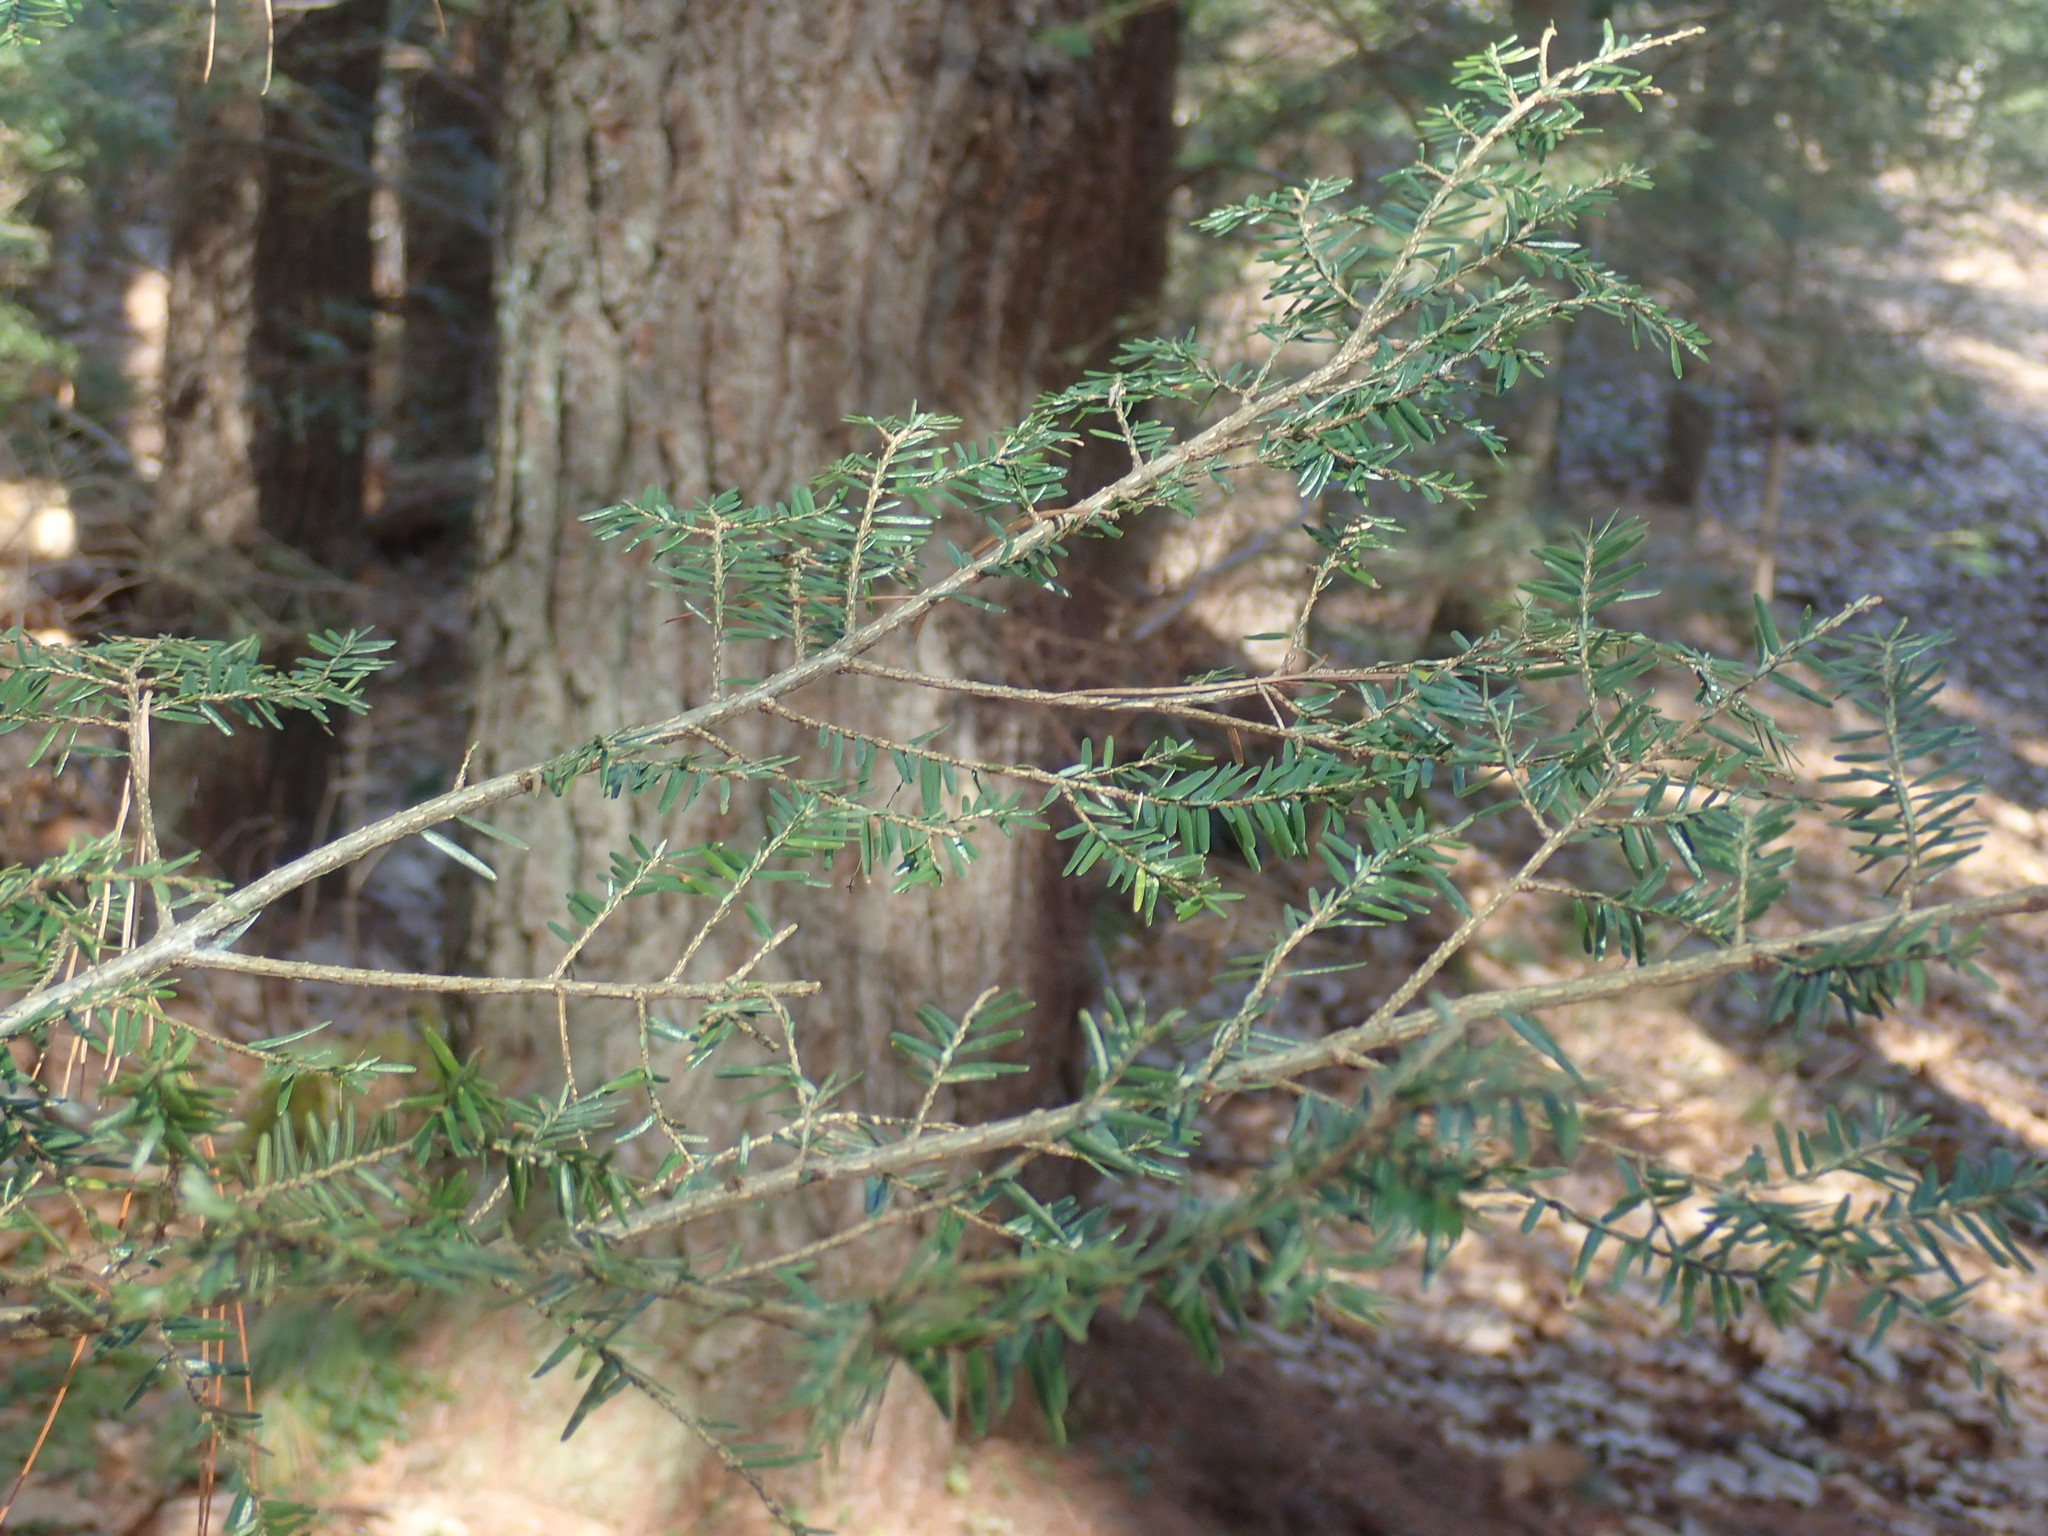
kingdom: Plantae
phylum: Tracheophyta
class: Pinopsida
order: Pinales
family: Pinaceae
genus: Tsuga
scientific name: Tsuga canadensis
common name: Eastern hemlock
